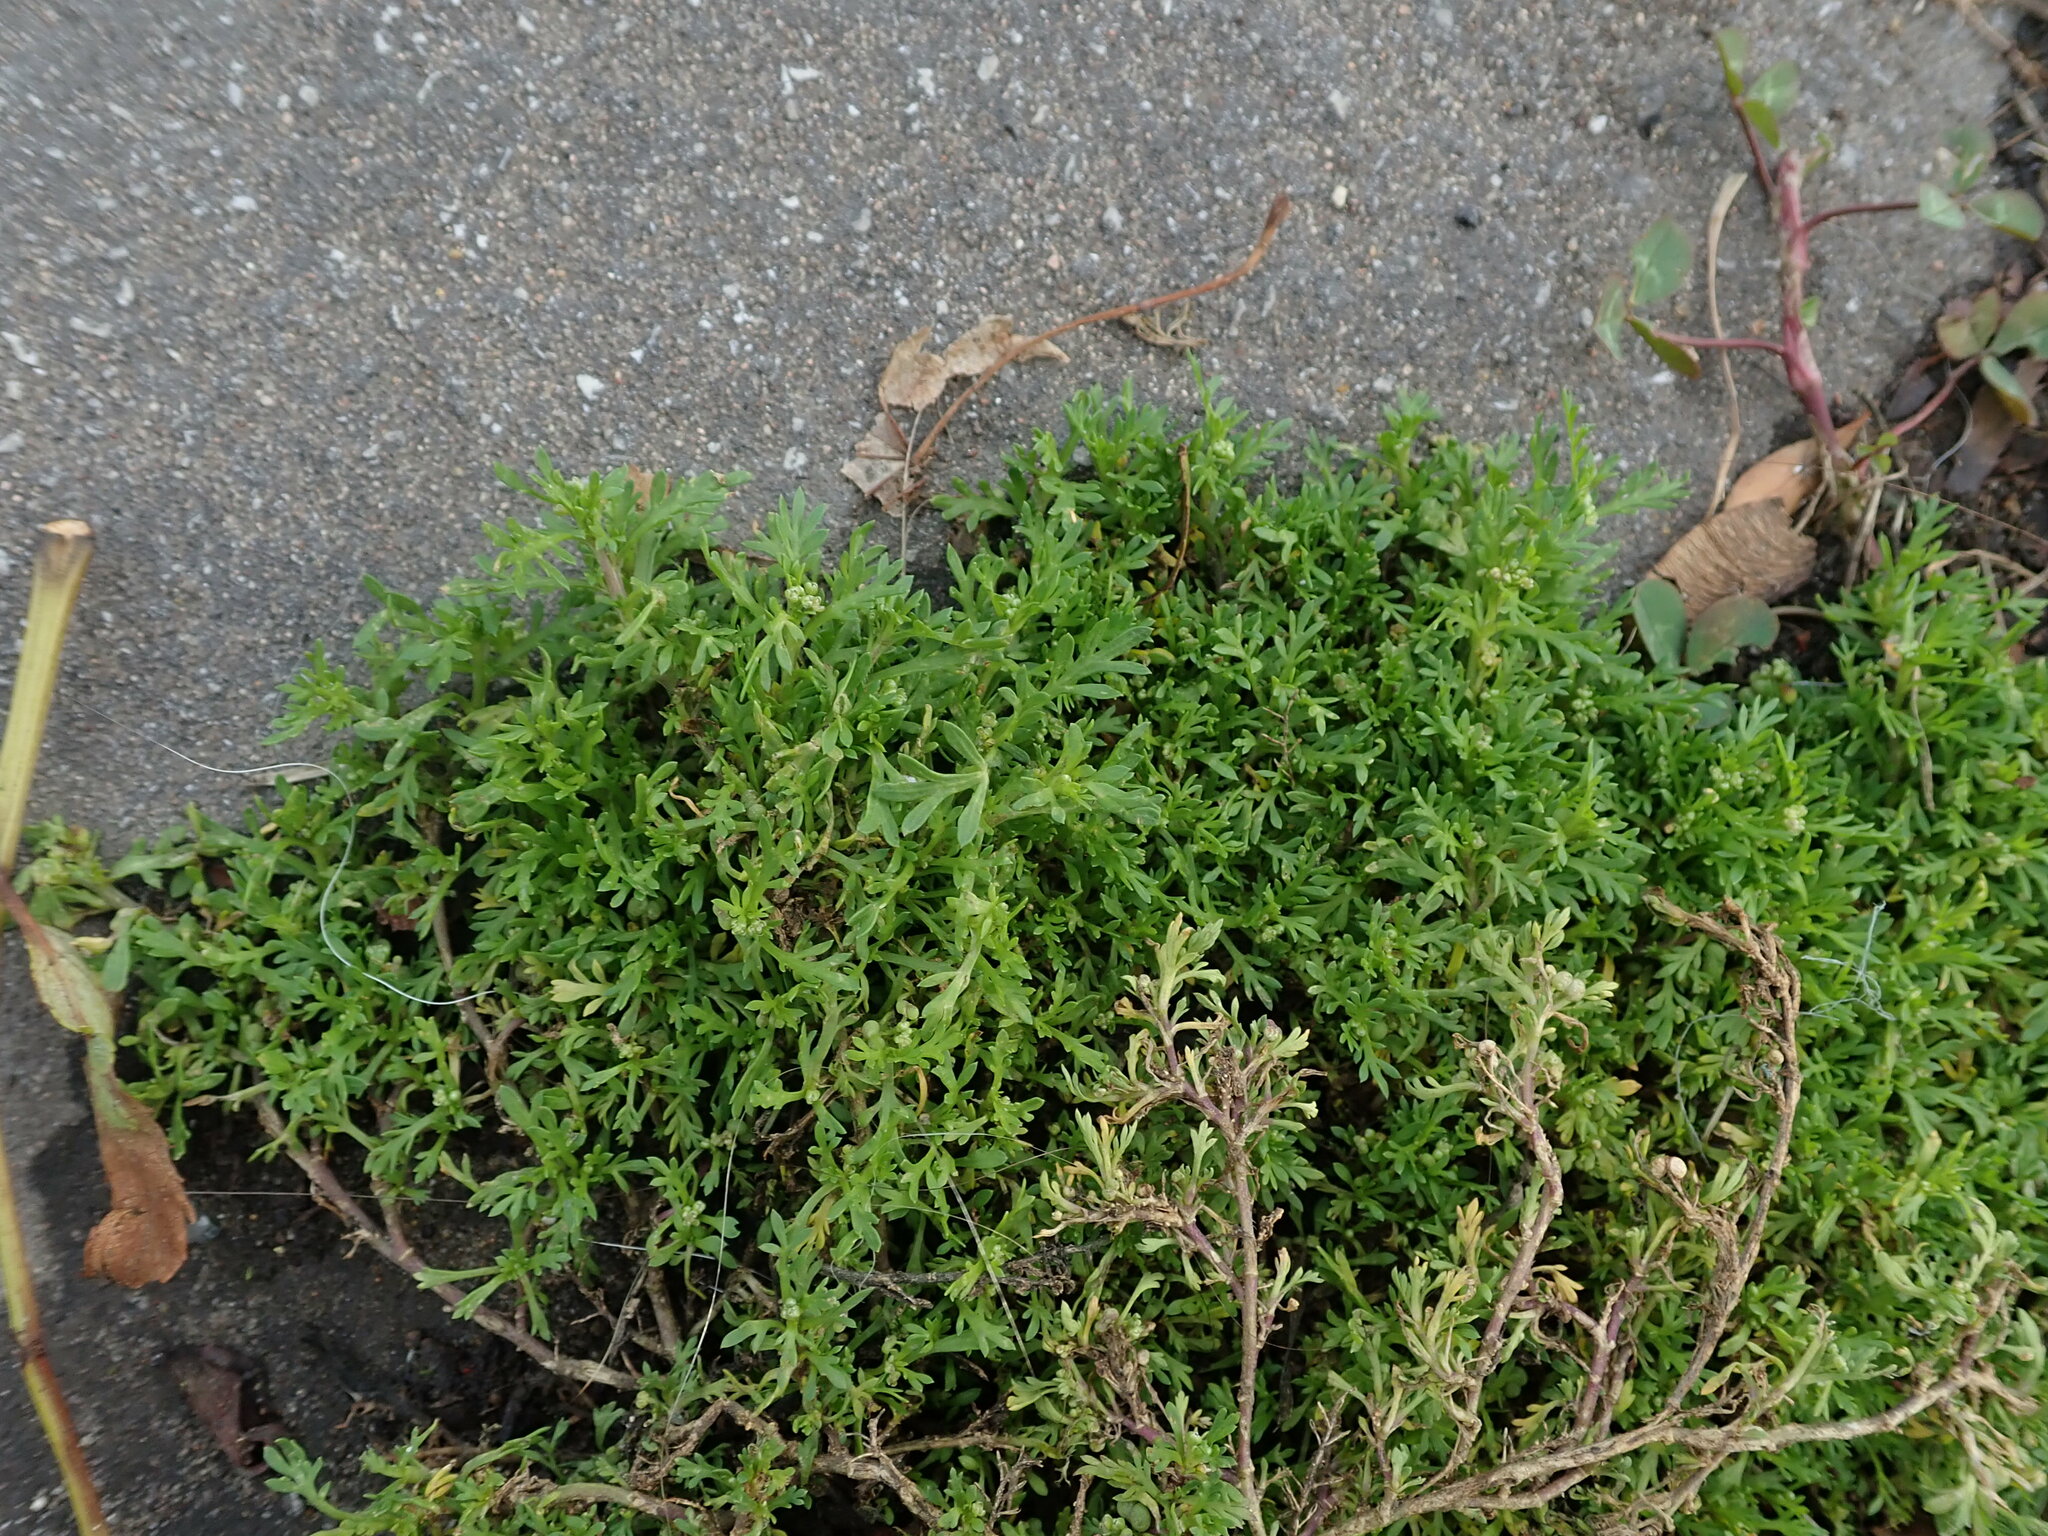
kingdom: Plantae
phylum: Tracheophyta
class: Magnoliopsida
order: Brassicales
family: Brassicaceae
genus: Lepidium
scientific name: Lepidium didymum
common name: Lesser swinecress
